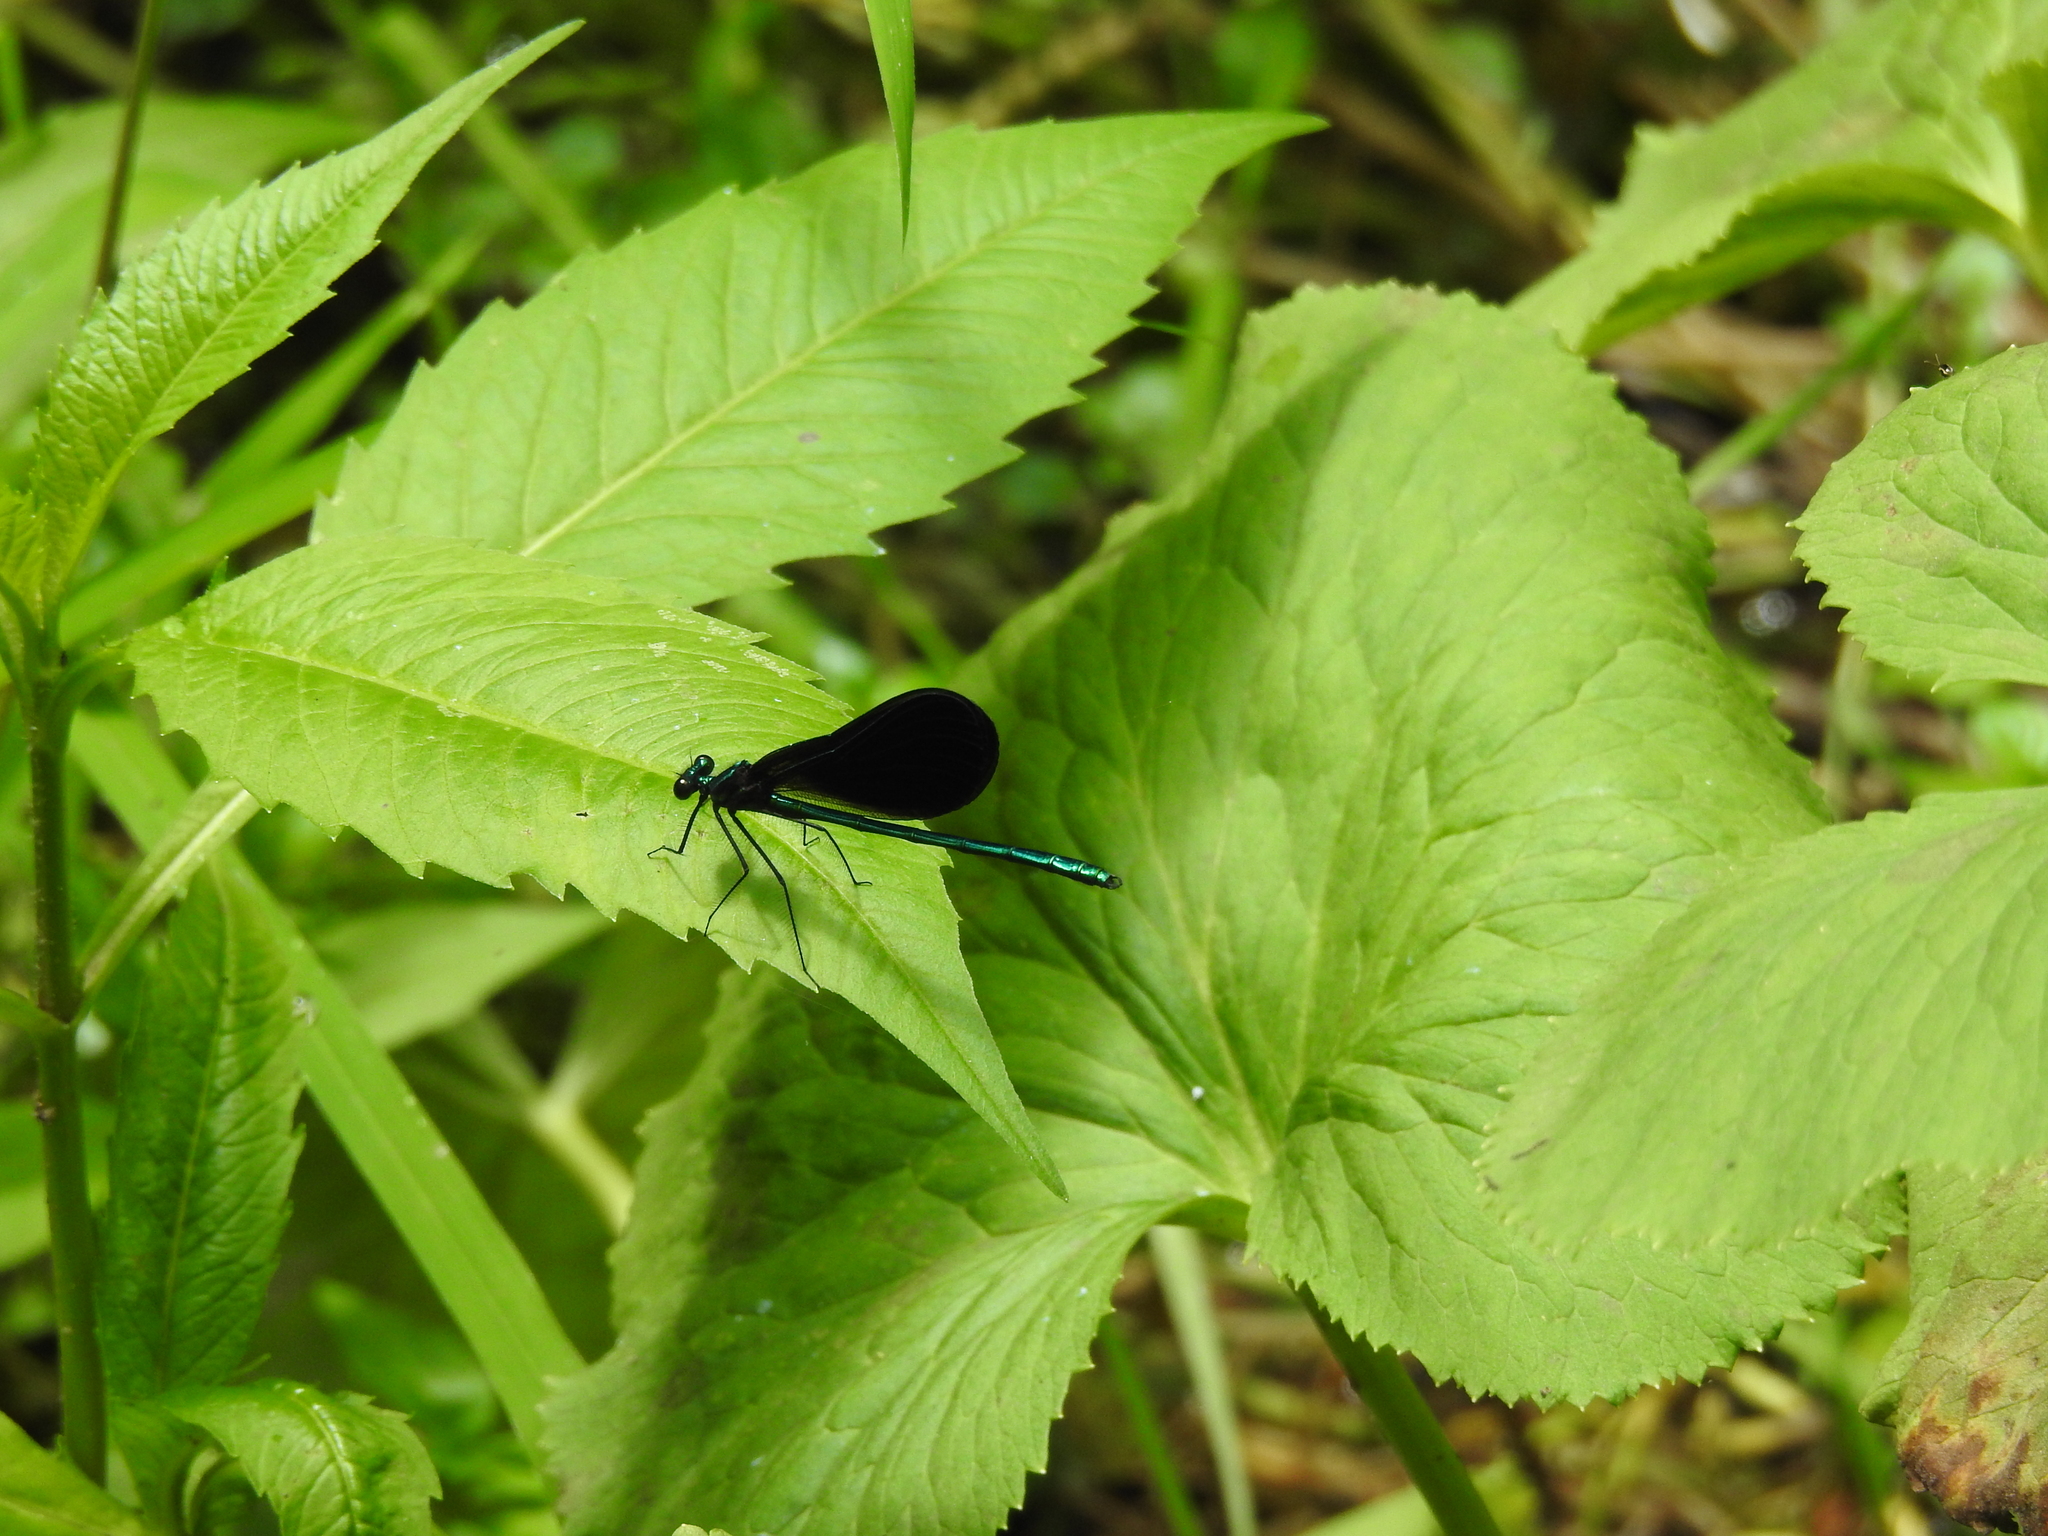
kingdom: Animalia
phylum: Arthropoda
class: Insecta
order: Odonata
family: Calopterygidae
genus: Calopteryx
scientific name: Calopteryx maculata
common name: Ebony jewelwing
